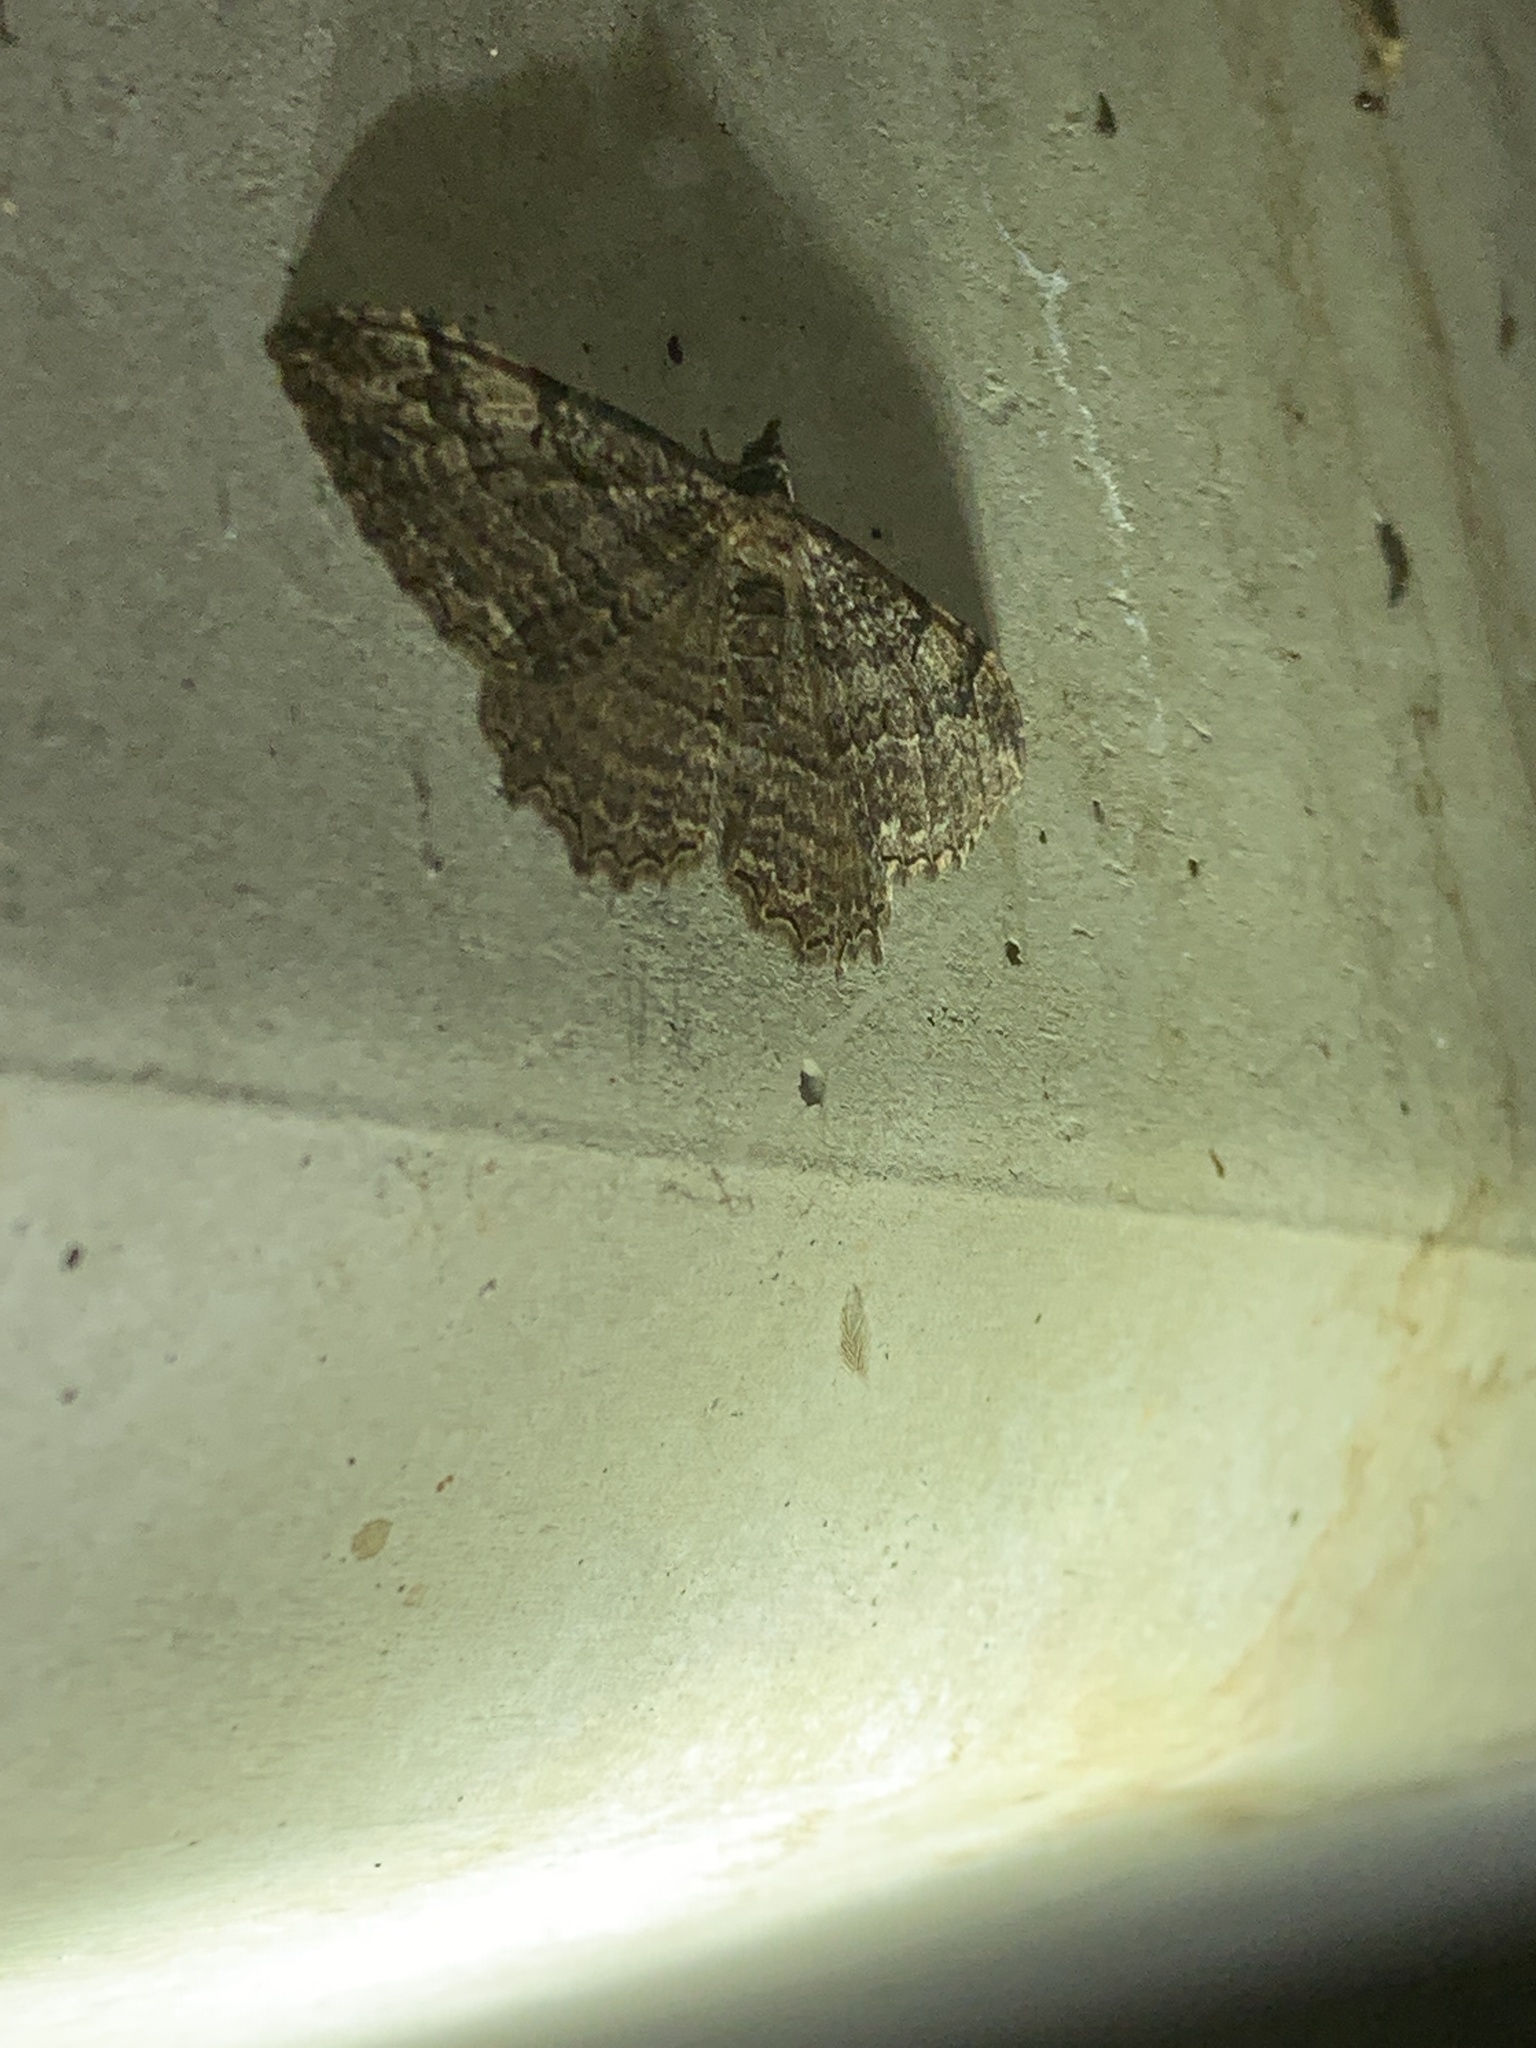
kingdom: Animalia
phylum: Arthropoda
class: Insecta
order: Lepidoptera
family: Geometridae
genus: Rheumaptera
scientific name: Rheumaptera
